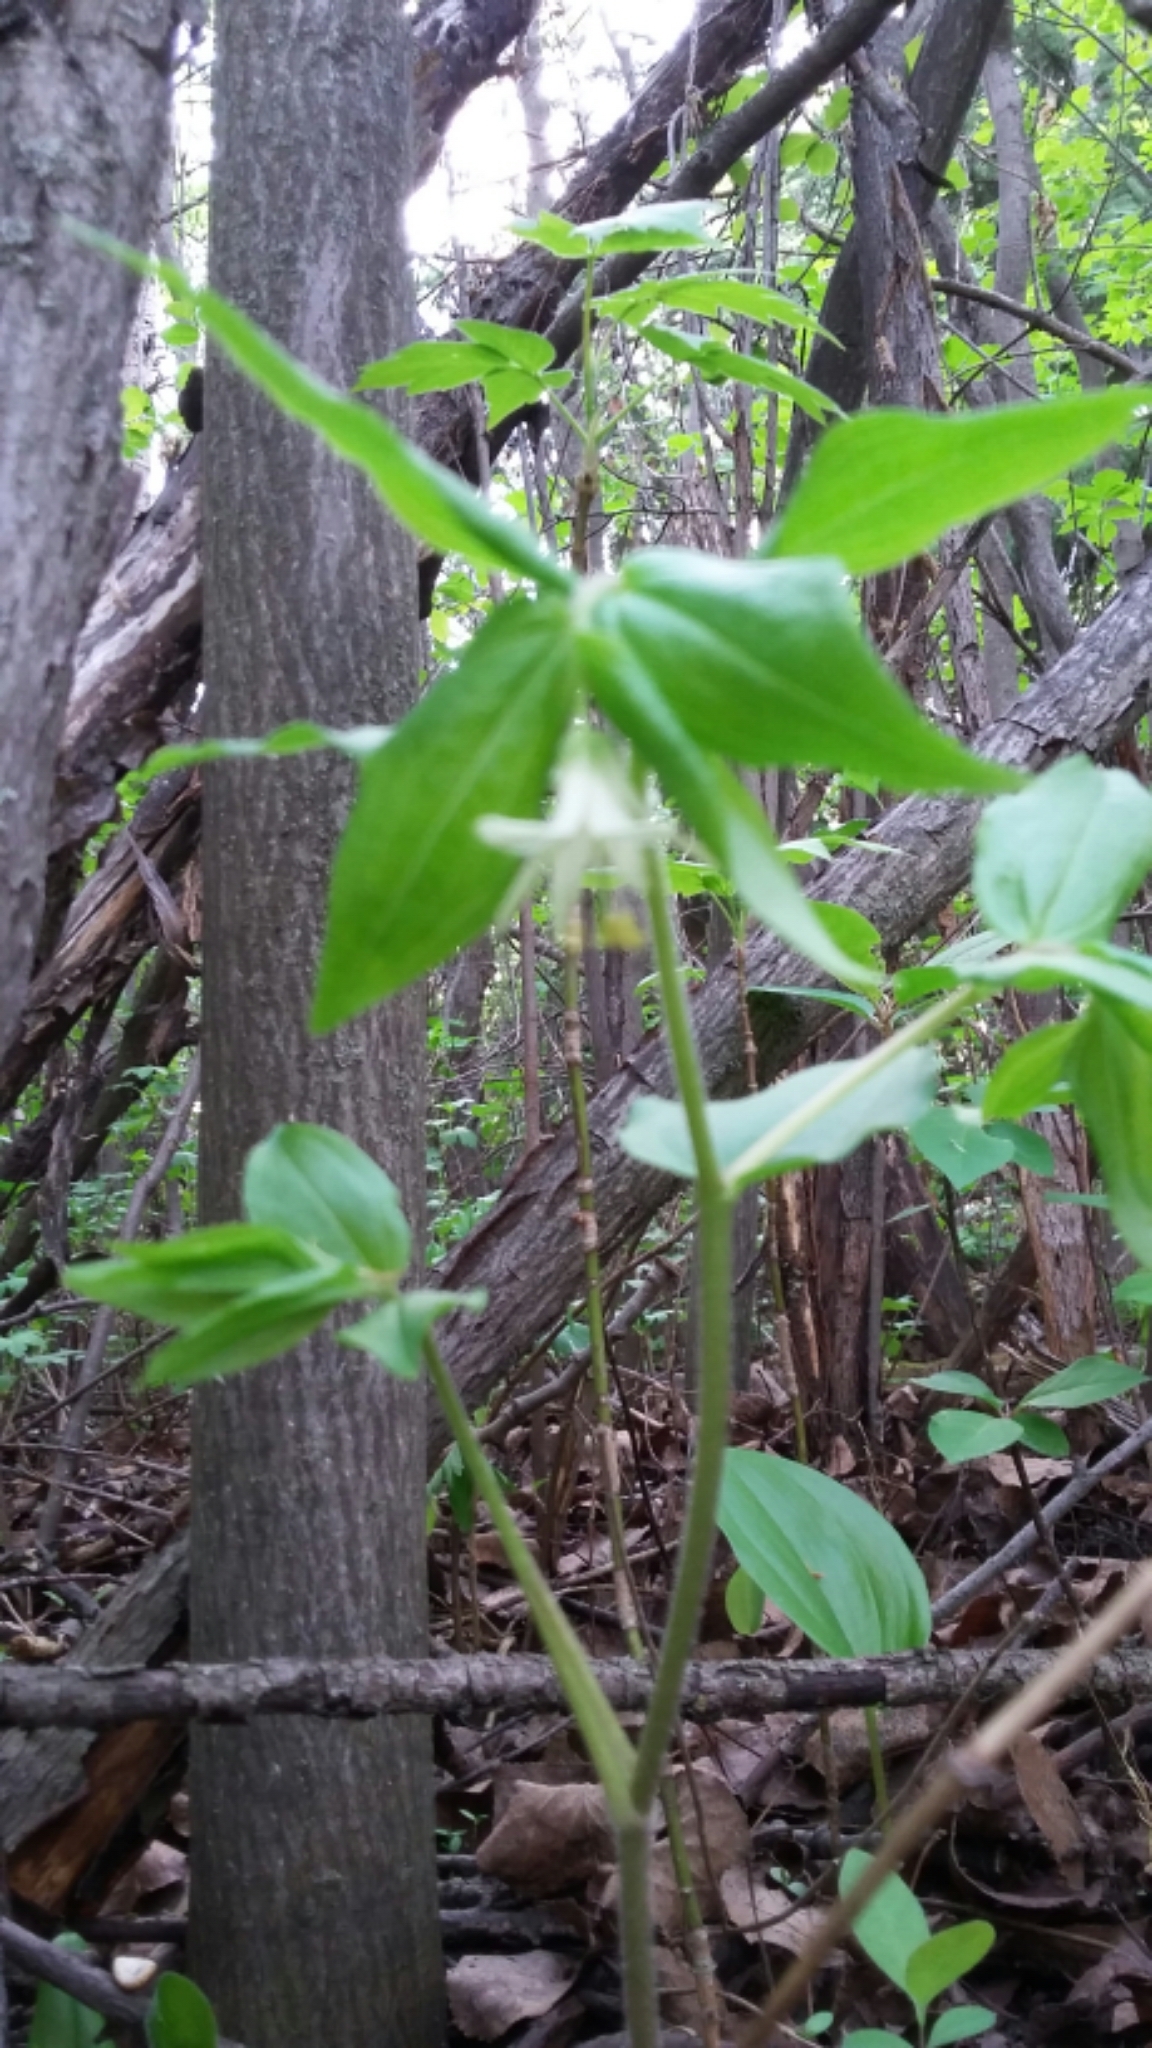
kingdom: Plantae
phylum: Tracheophyta
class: Liliopsida
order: Liliales
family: Liliaceae
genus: Prosartes
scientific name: Prosartes trachycarpa
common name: Rough-fruit fairy-bells
